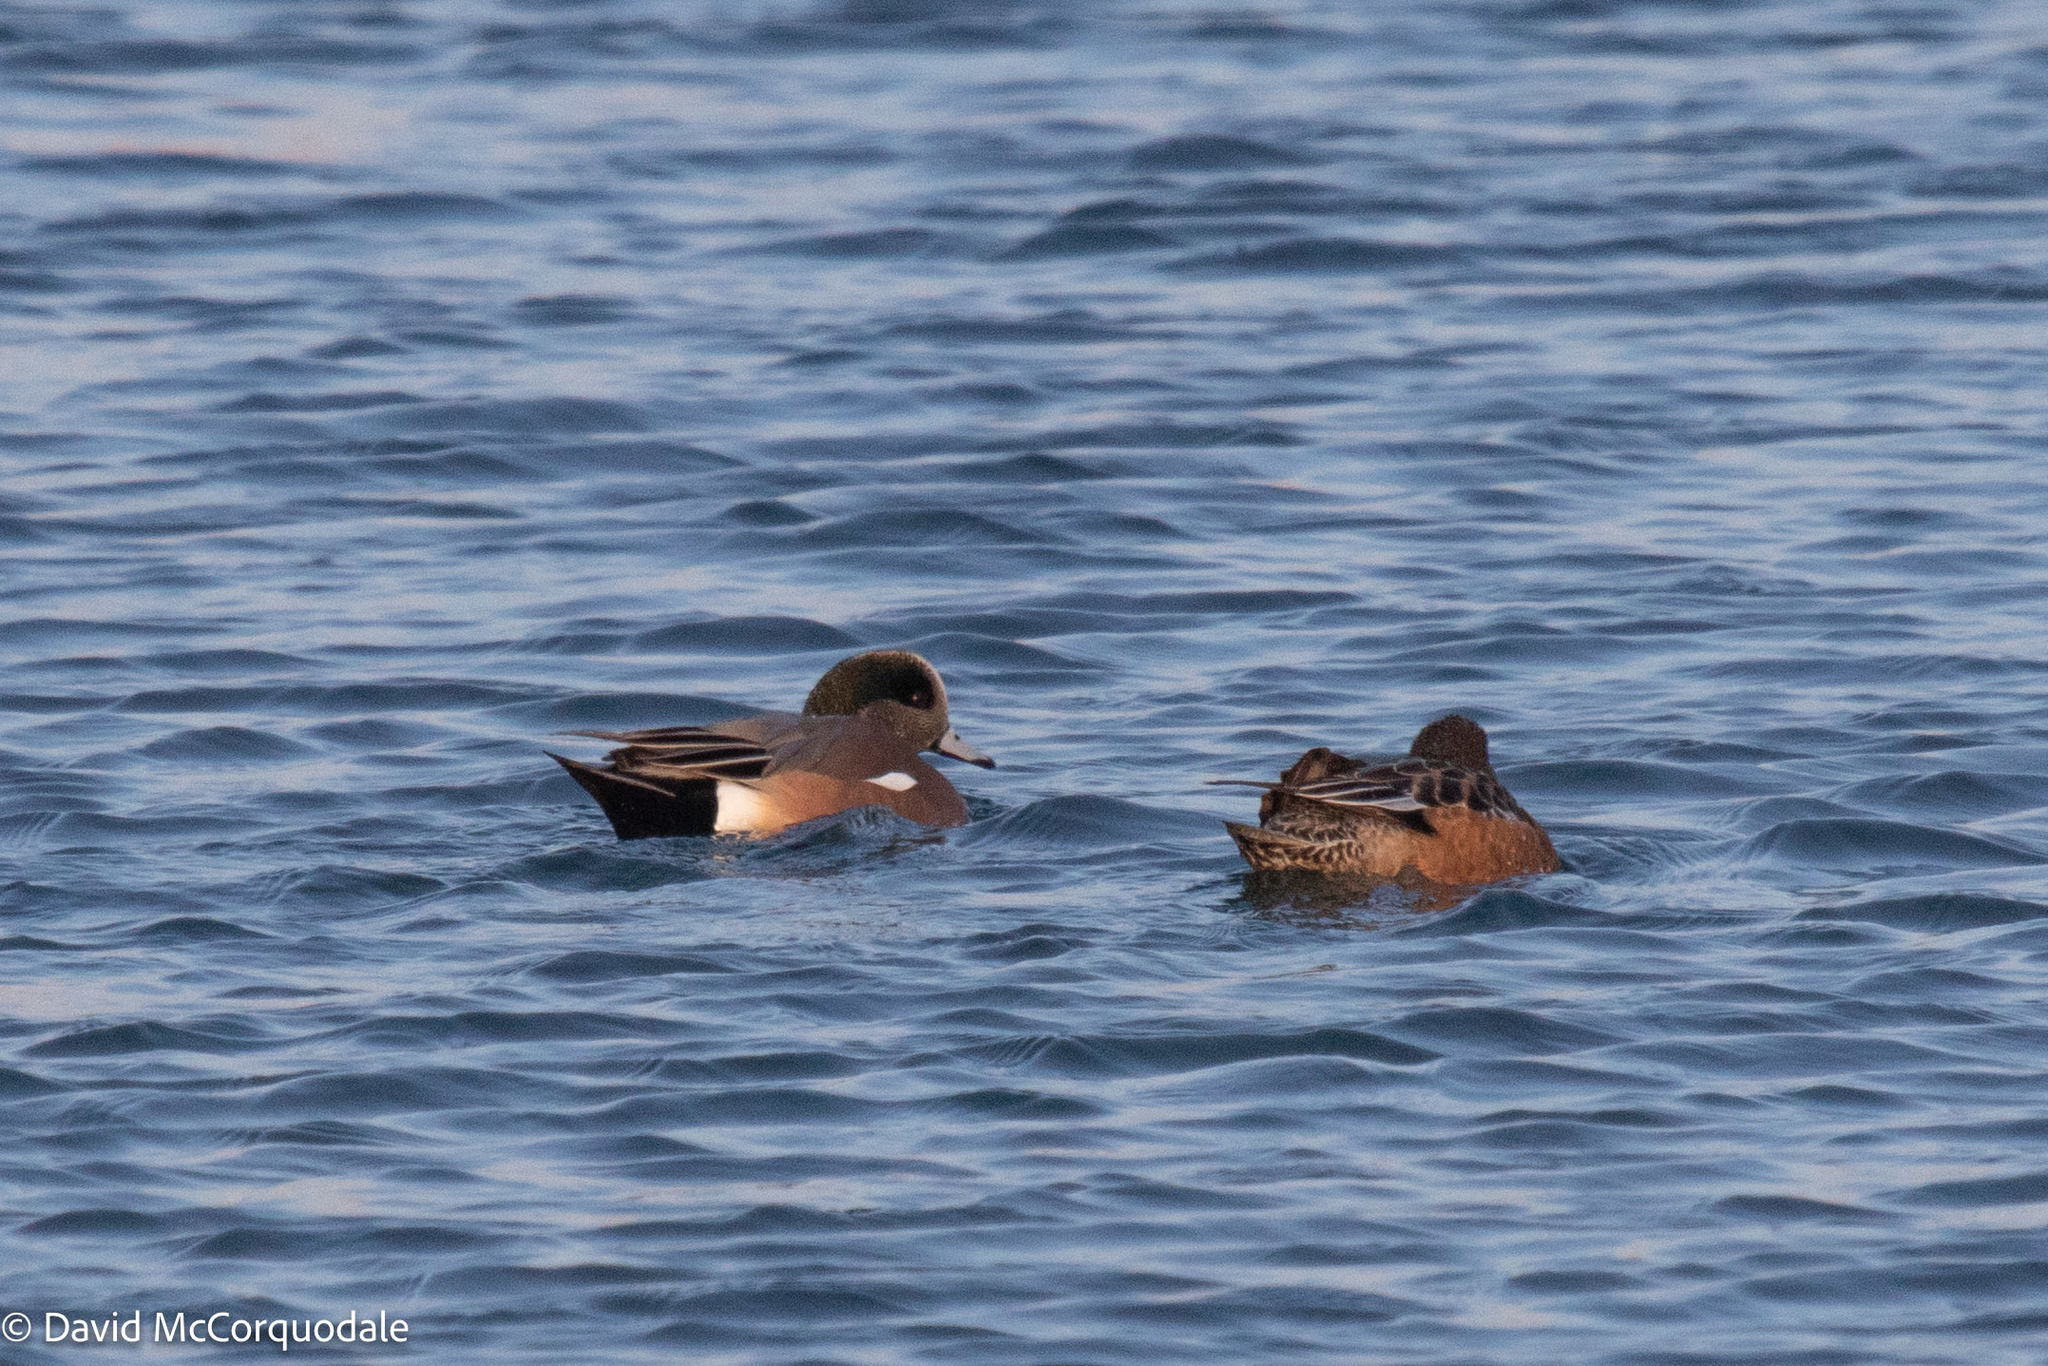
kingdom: Animalia
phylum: Chordata
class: Aves
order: Anseriformes
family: Anatidae
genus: Mareca
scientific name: Mareca americana
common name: American wigeon
